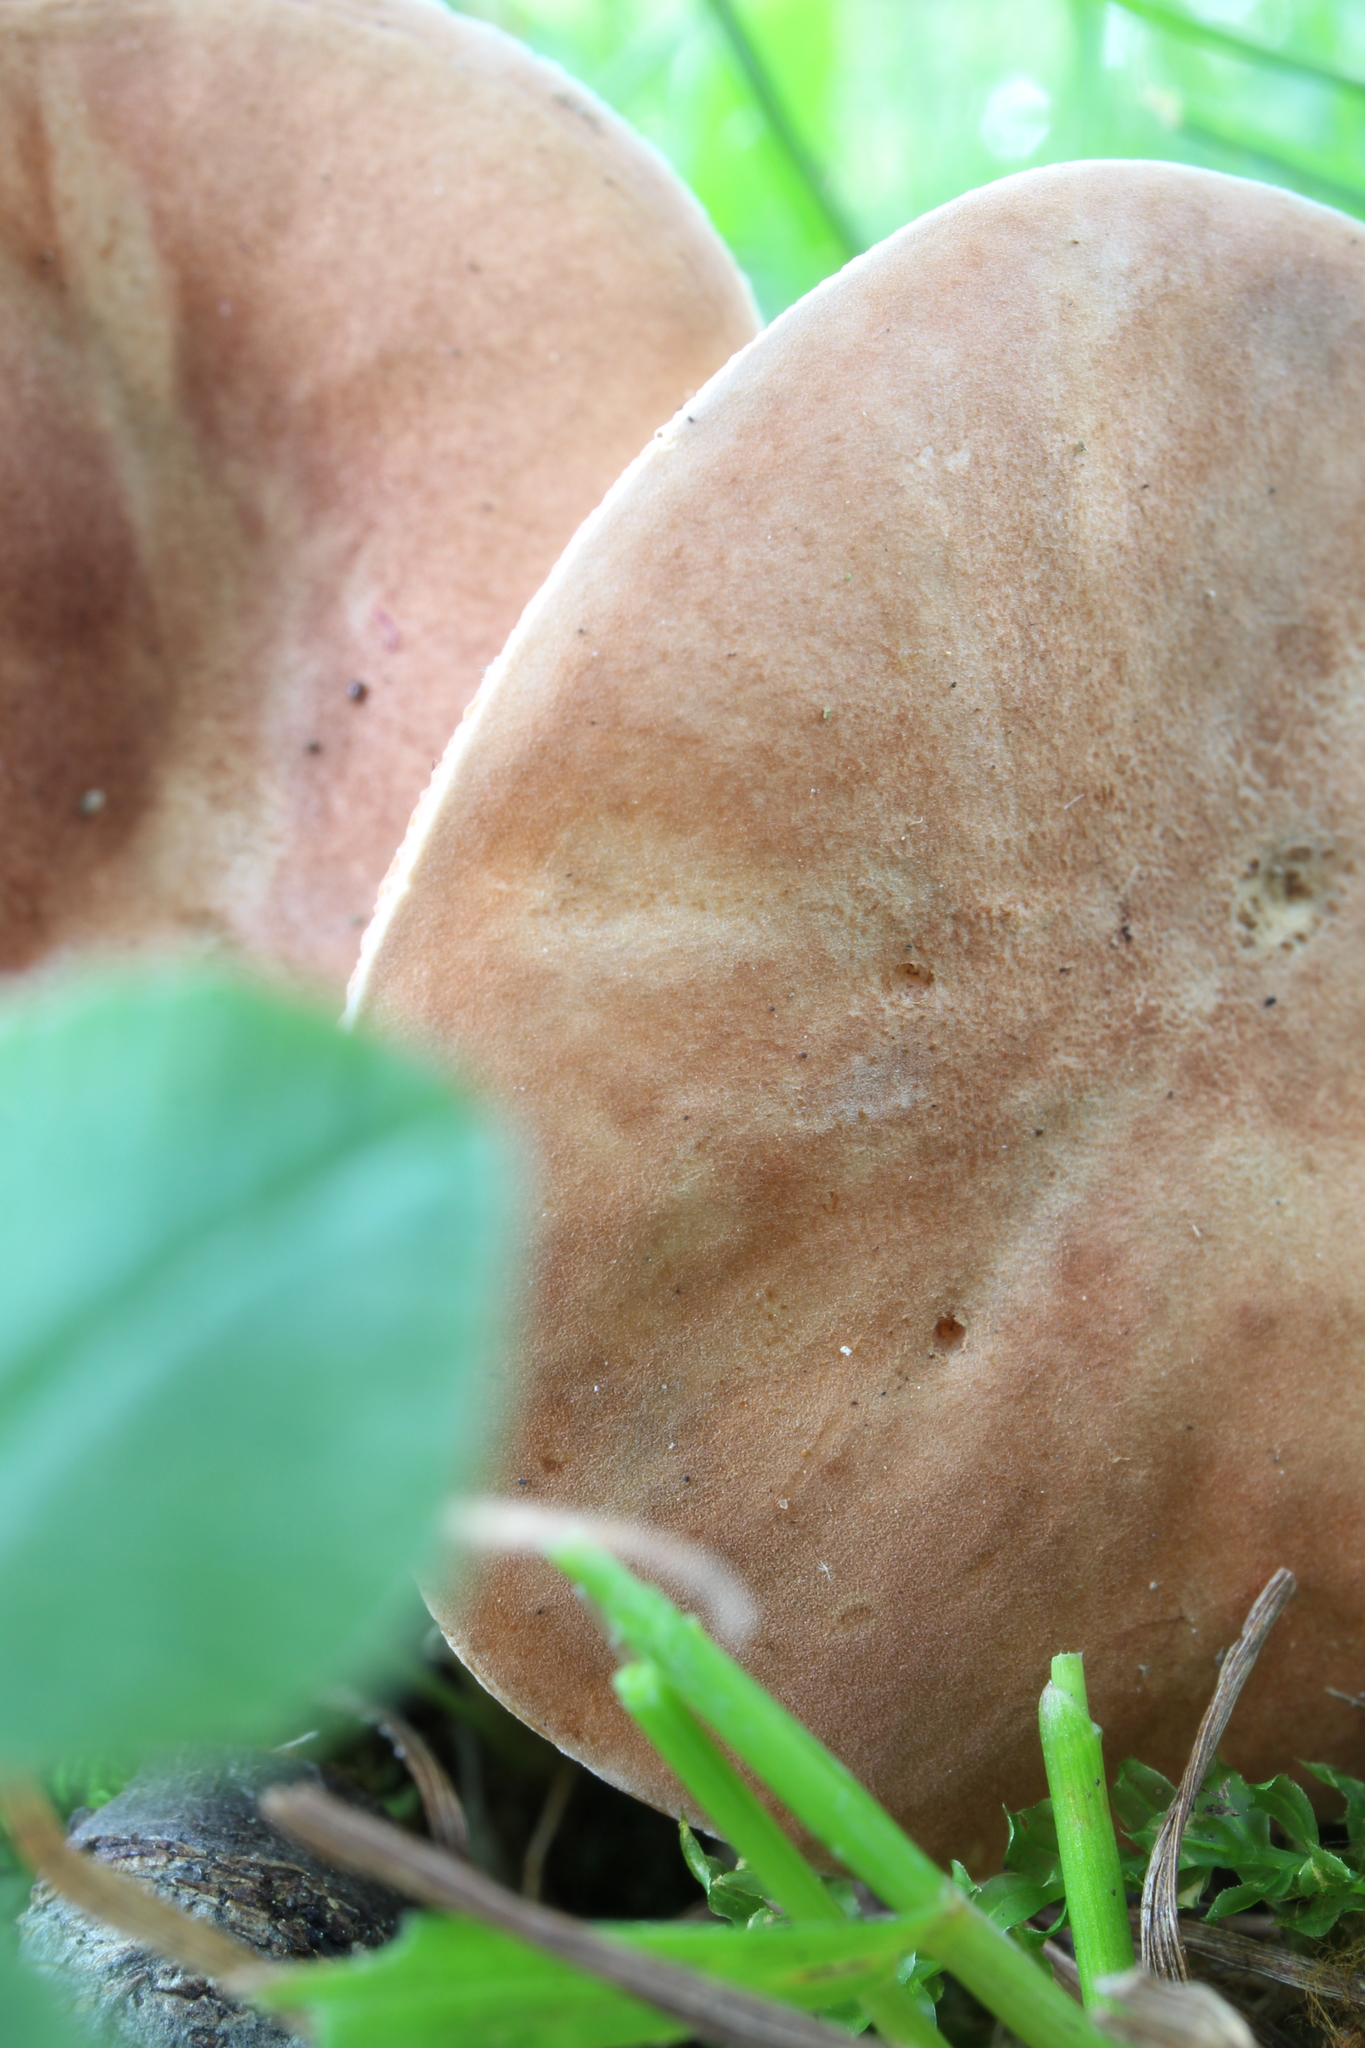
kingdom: Fungi
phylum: Basidiomycota
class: Agaricomycetes
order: Boletales
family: Gyroporaceae
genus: Gyroporus
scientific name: Gyroporus castaneus
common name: Chestnut bolete
